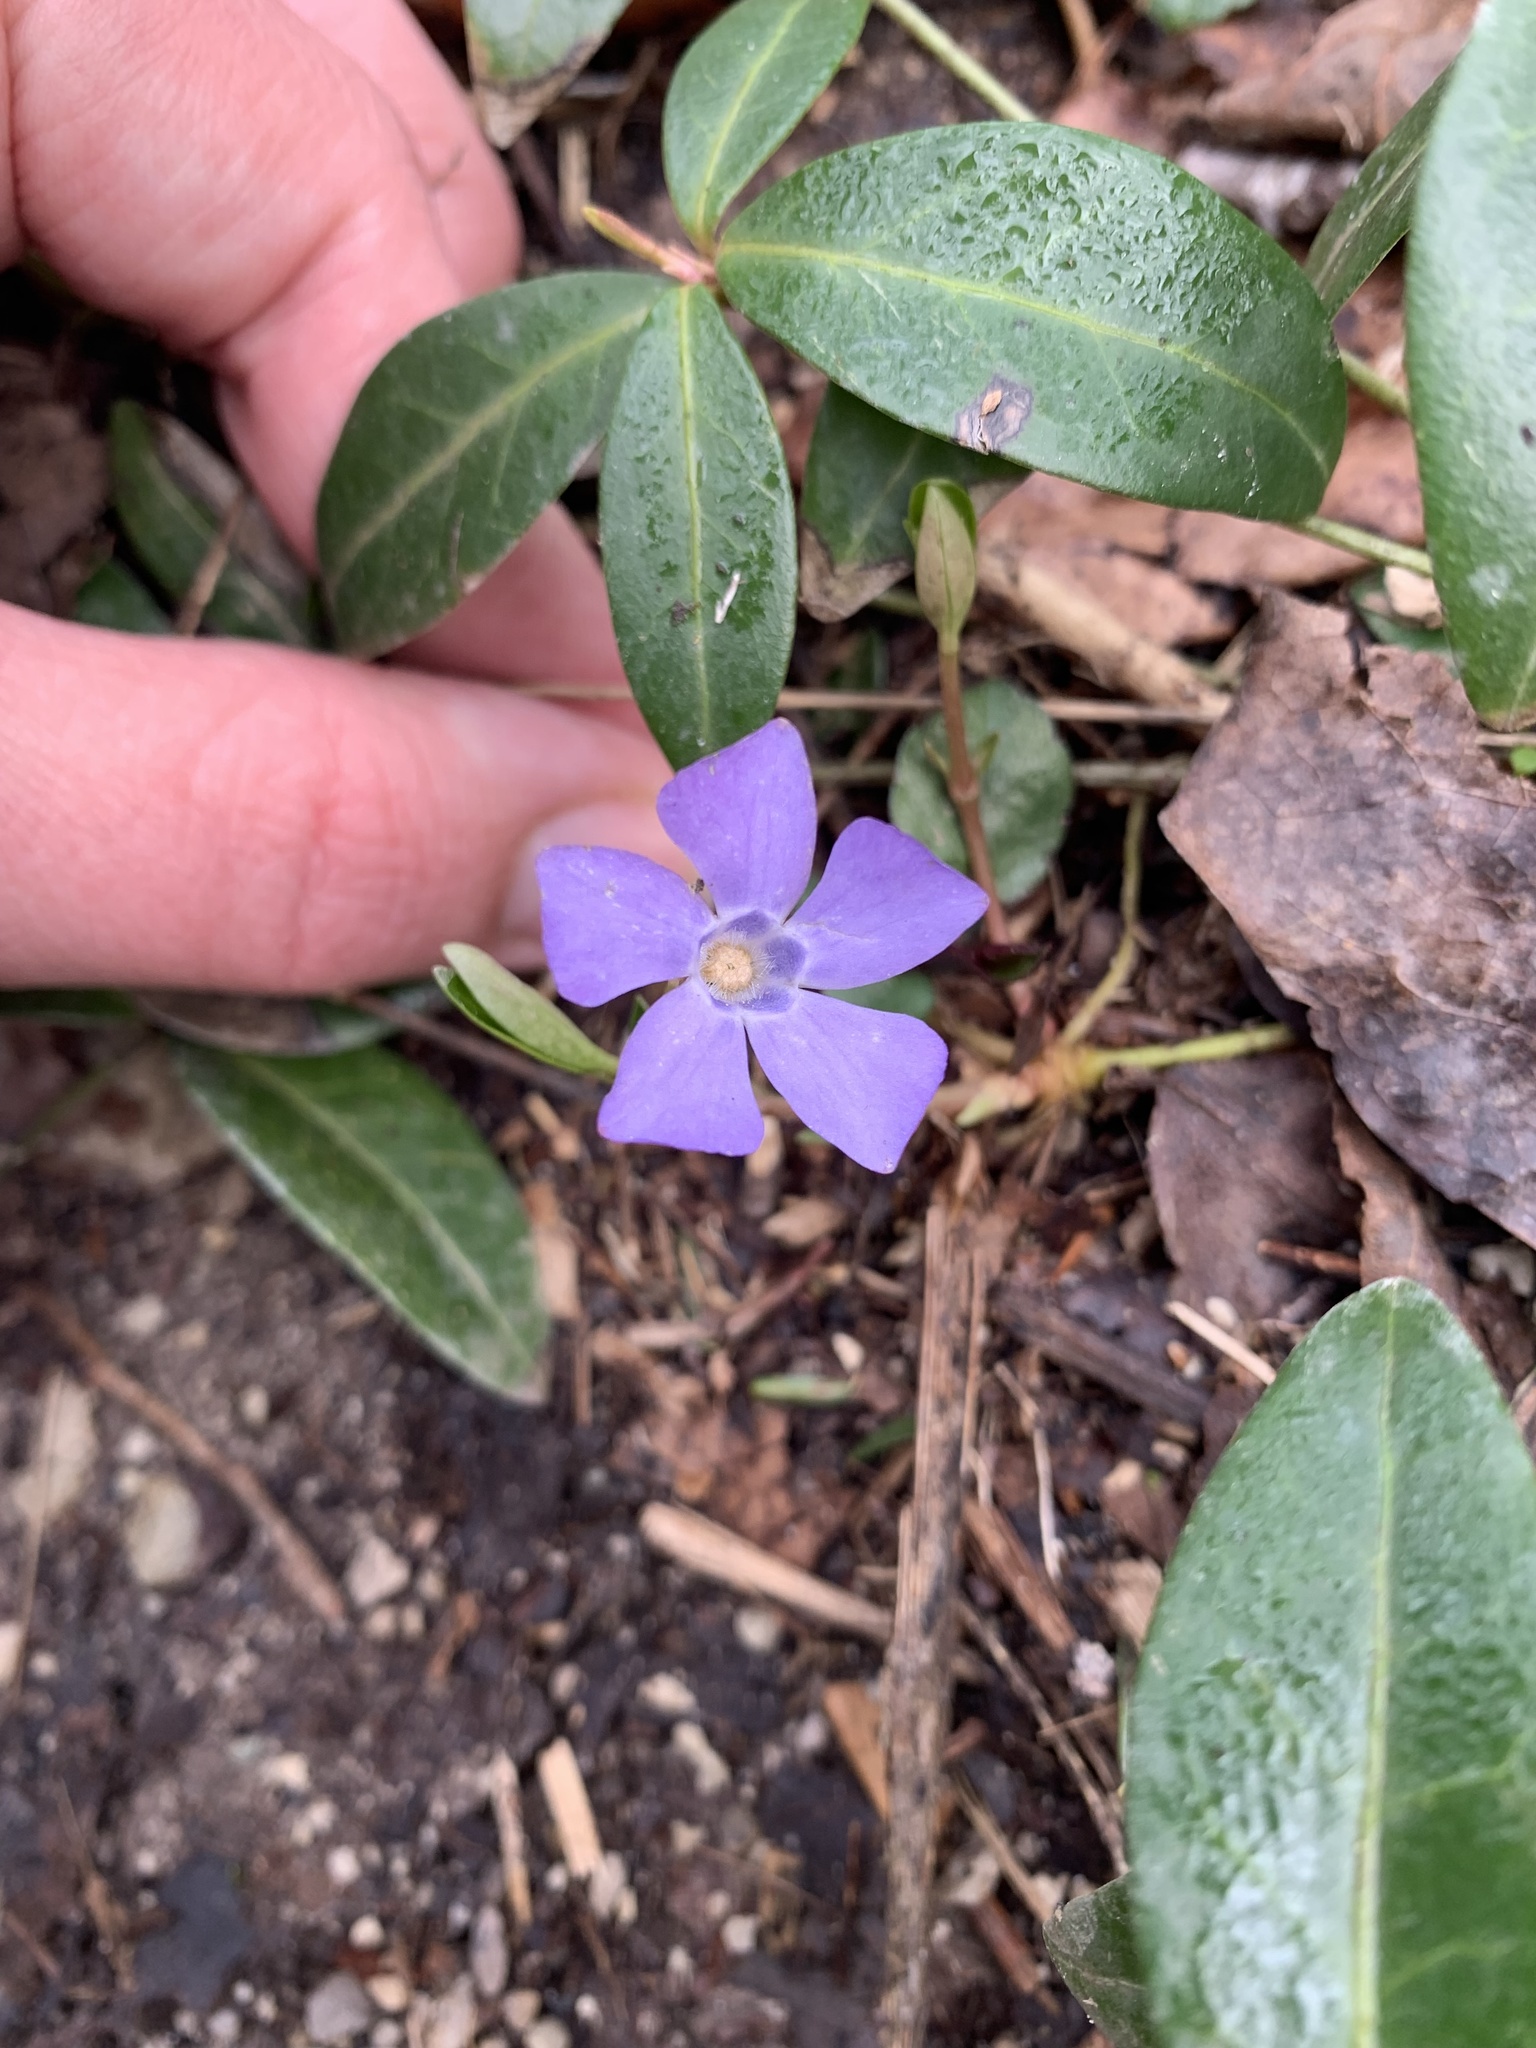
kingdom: Plantae
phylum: Tracheophyta
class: Magnoliopsida
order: Gentianales
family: Apocynaceae
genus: Vinca
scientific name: Vinca minor
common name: Lesser periwinkle
